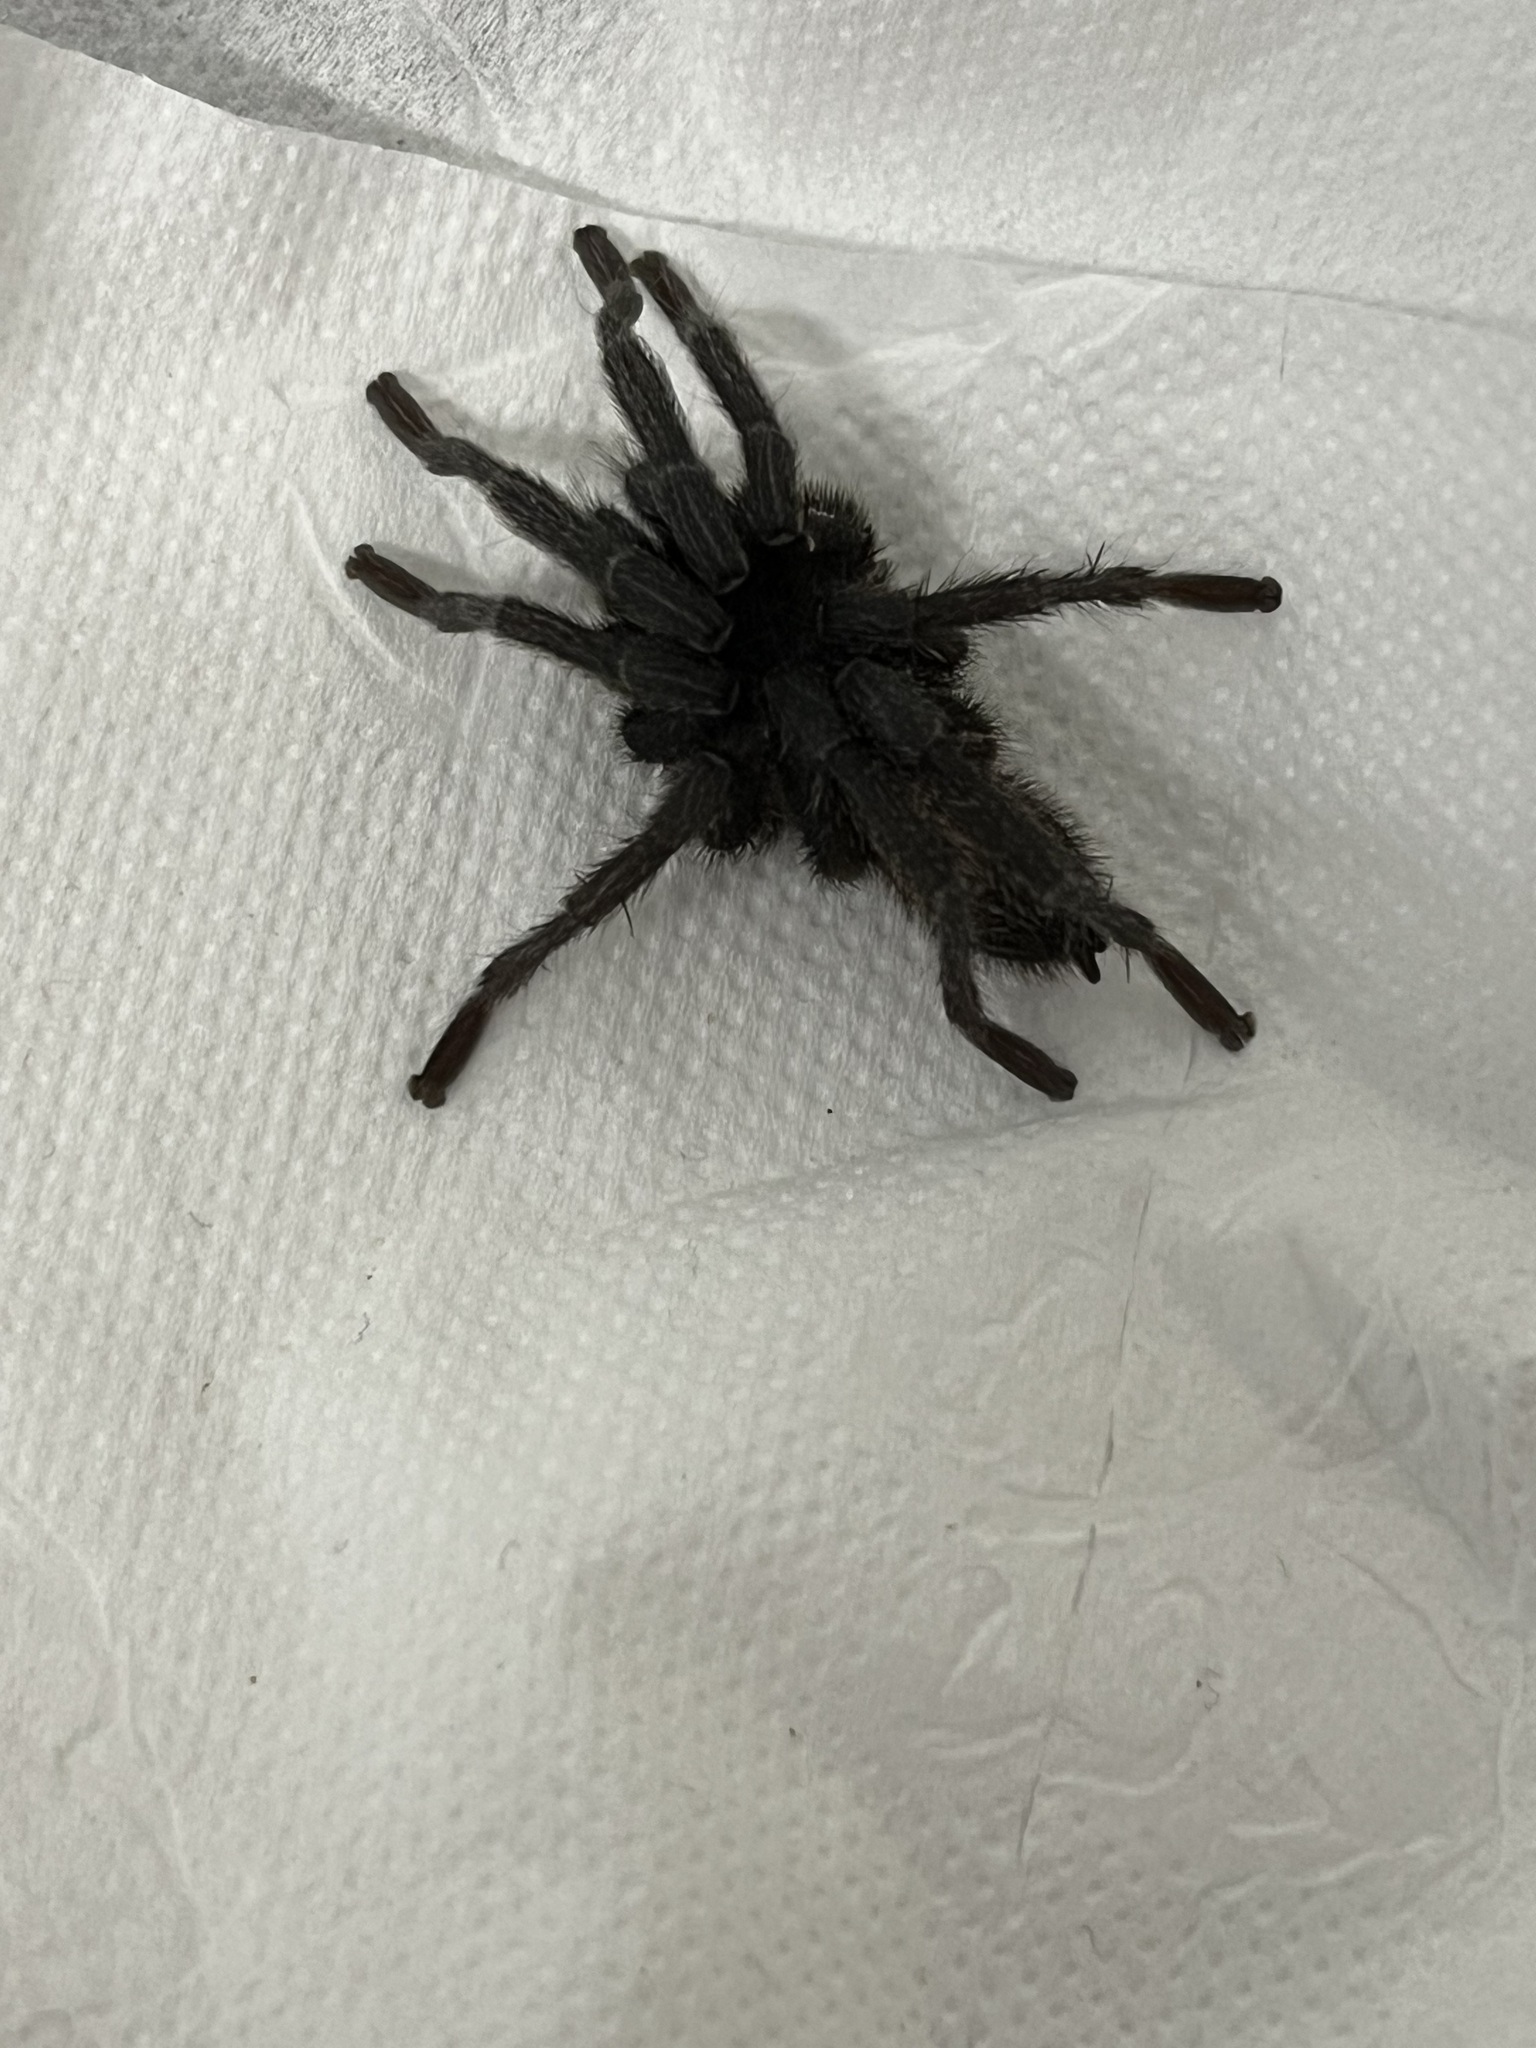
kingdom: Animalia
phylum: Arthropoda
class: Arachnida
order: Araneae
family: Theraphosidae
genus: Chaetopelma
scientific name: Chaetopelma olivaceum
